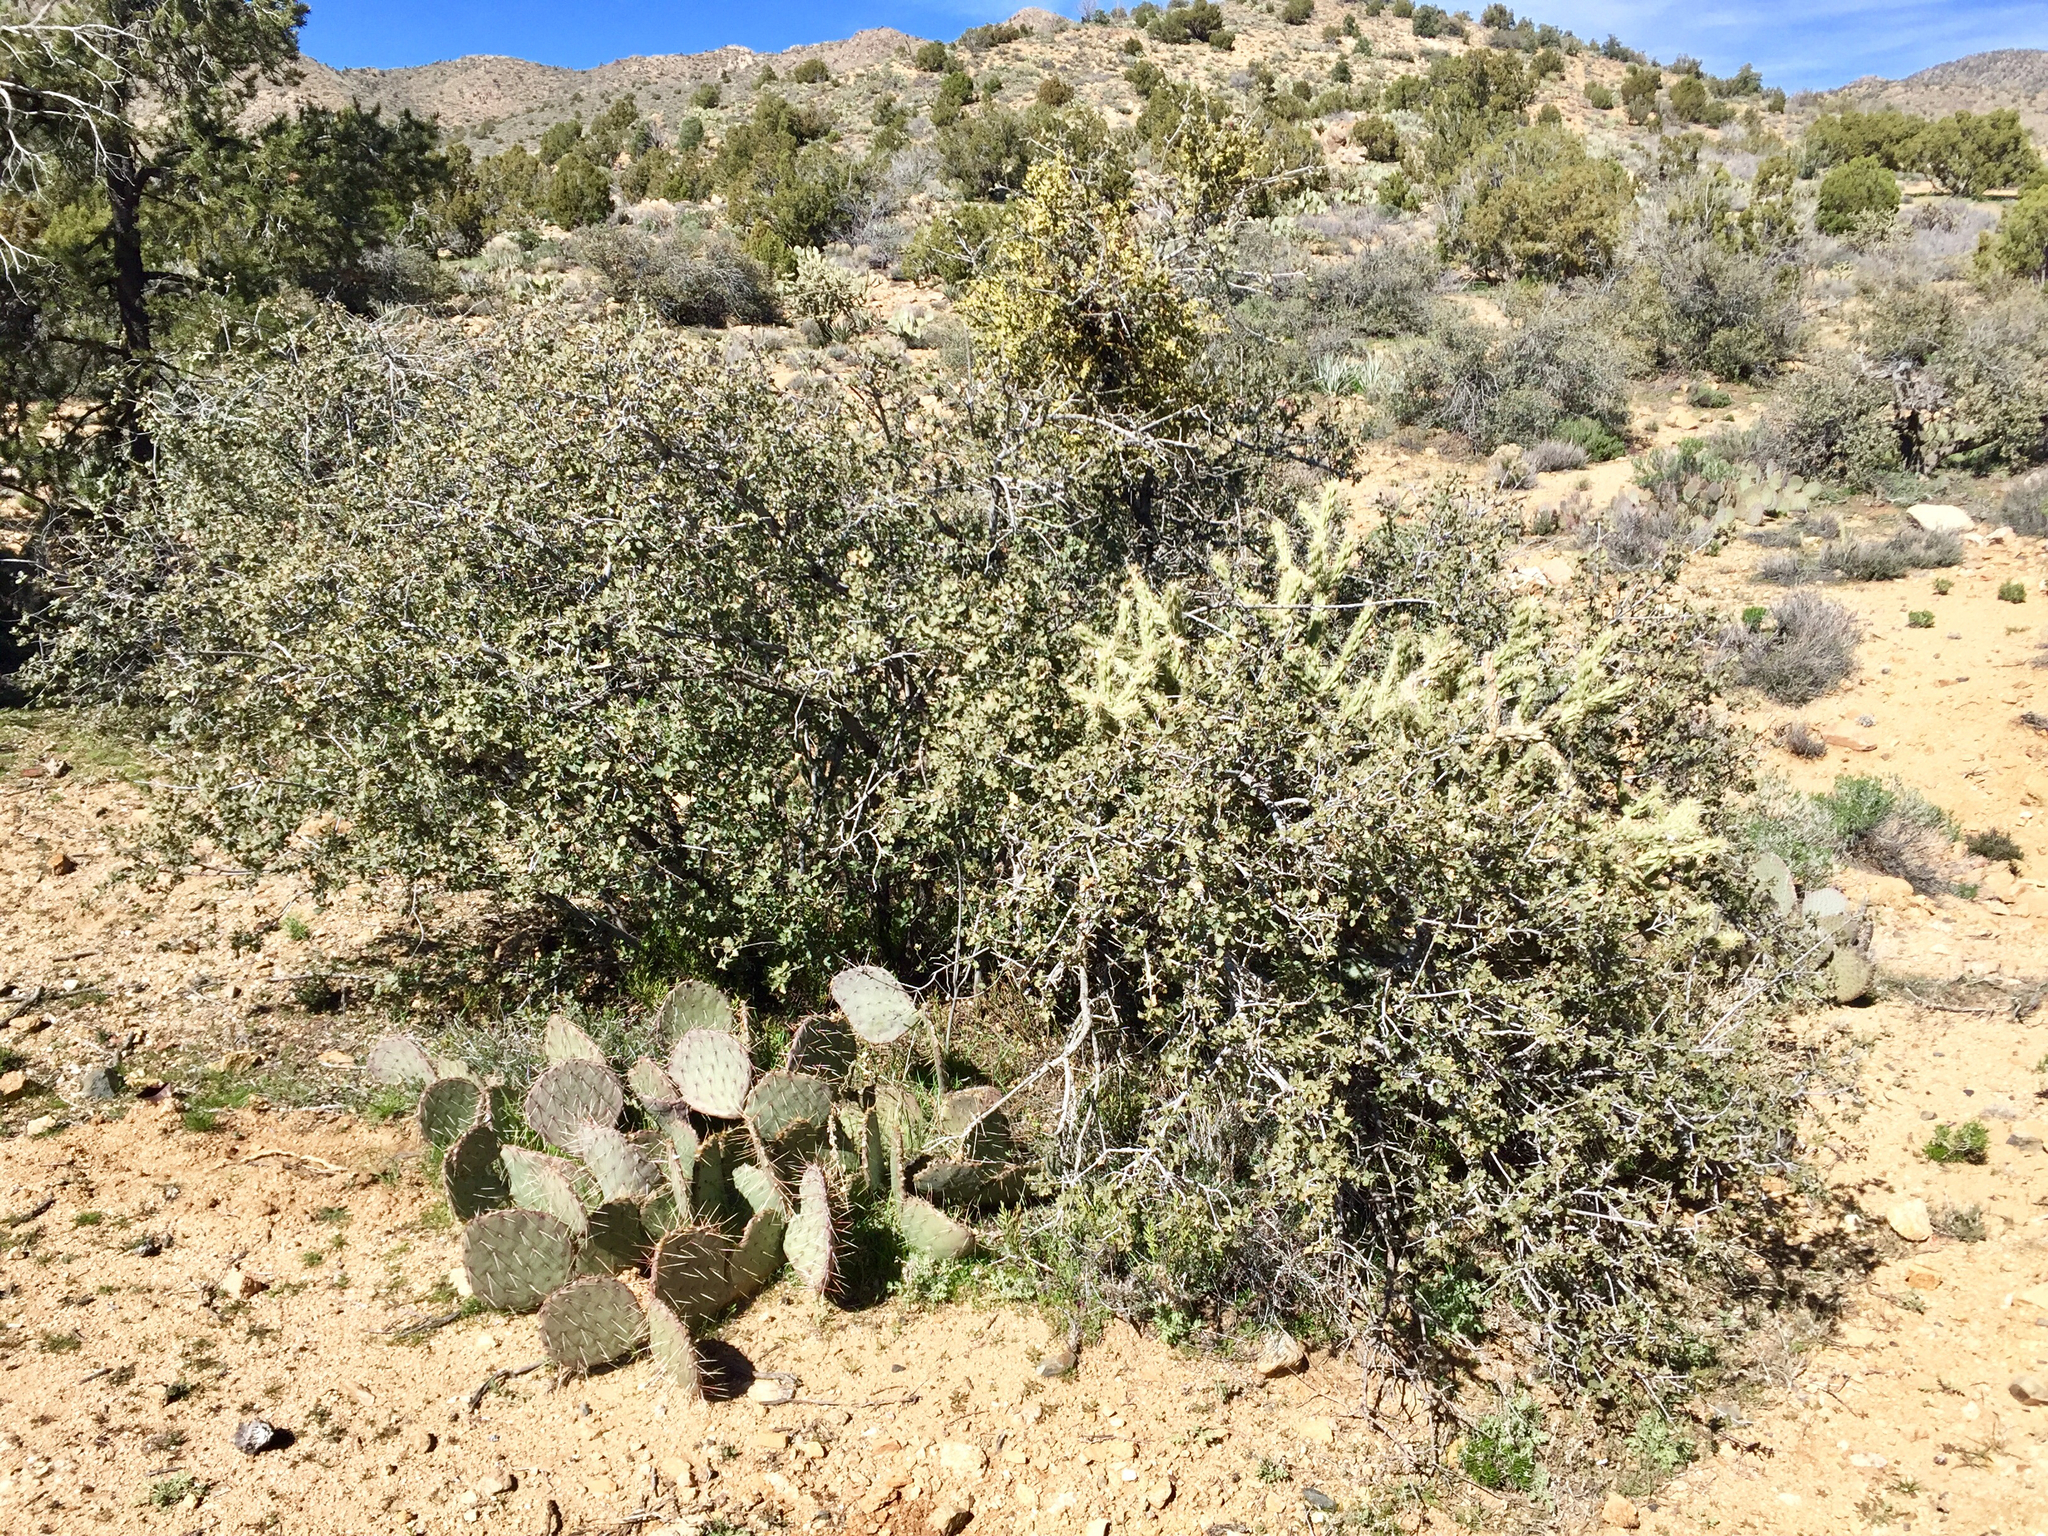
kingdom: Plantae
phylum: Tracheophyta
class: Magnoliopsida
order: Fagales
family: Fagaceae
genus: Quercus
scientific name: Quercus turbinella
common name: Sonoran scrub oak
